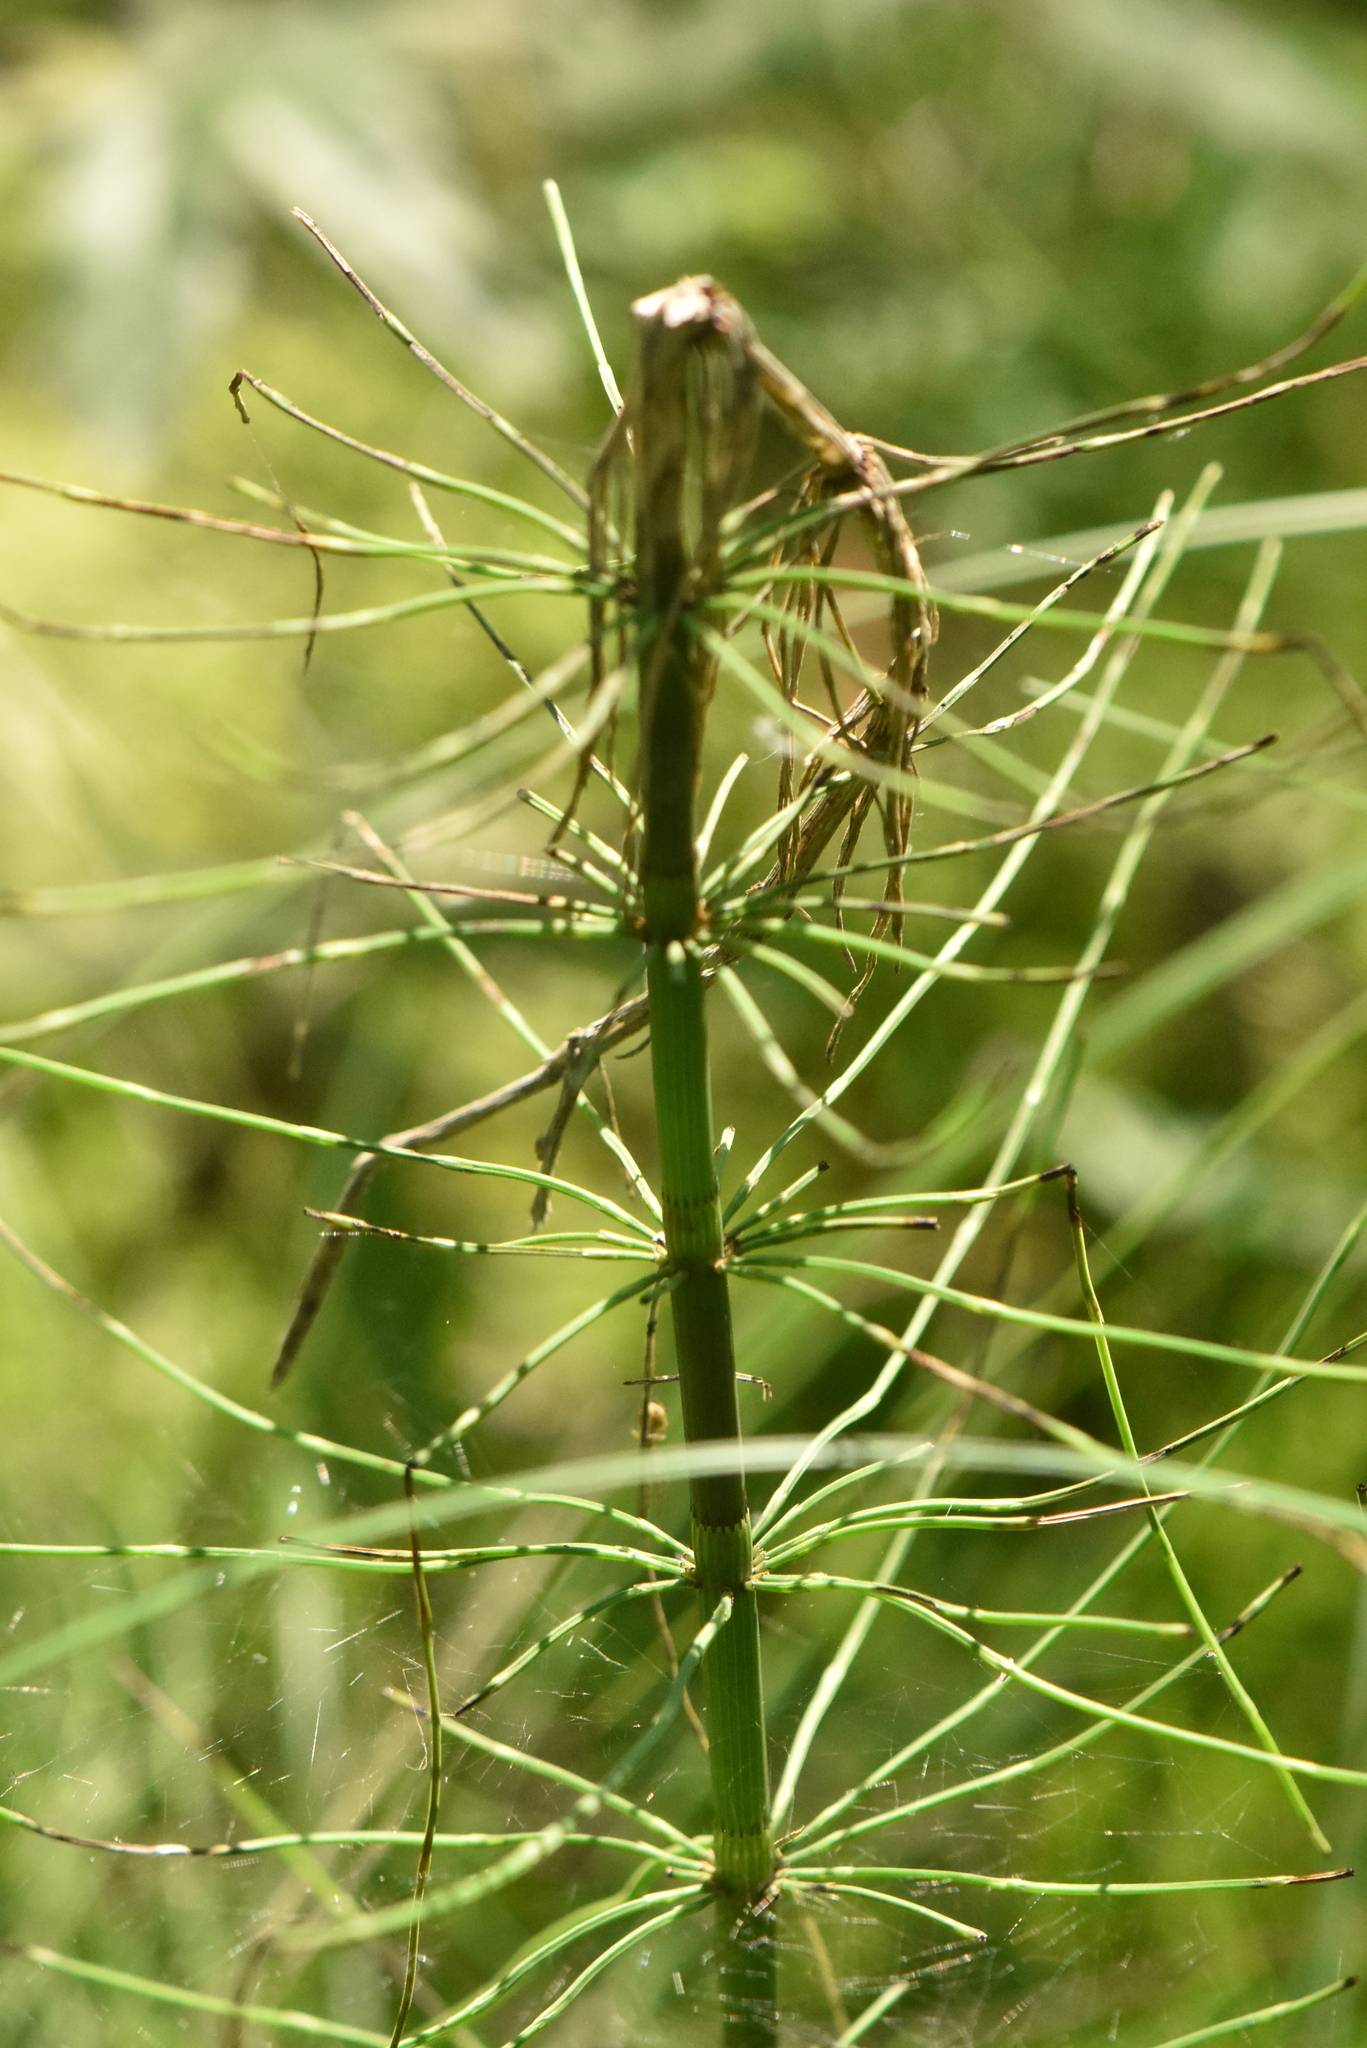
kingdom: Plantae
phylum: Tracheophyta
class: Polypodiopsida
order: Equisetales
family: Equisetaceae
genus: Equisetum
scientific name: Equisetum fluviatile
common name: Water horsetail
